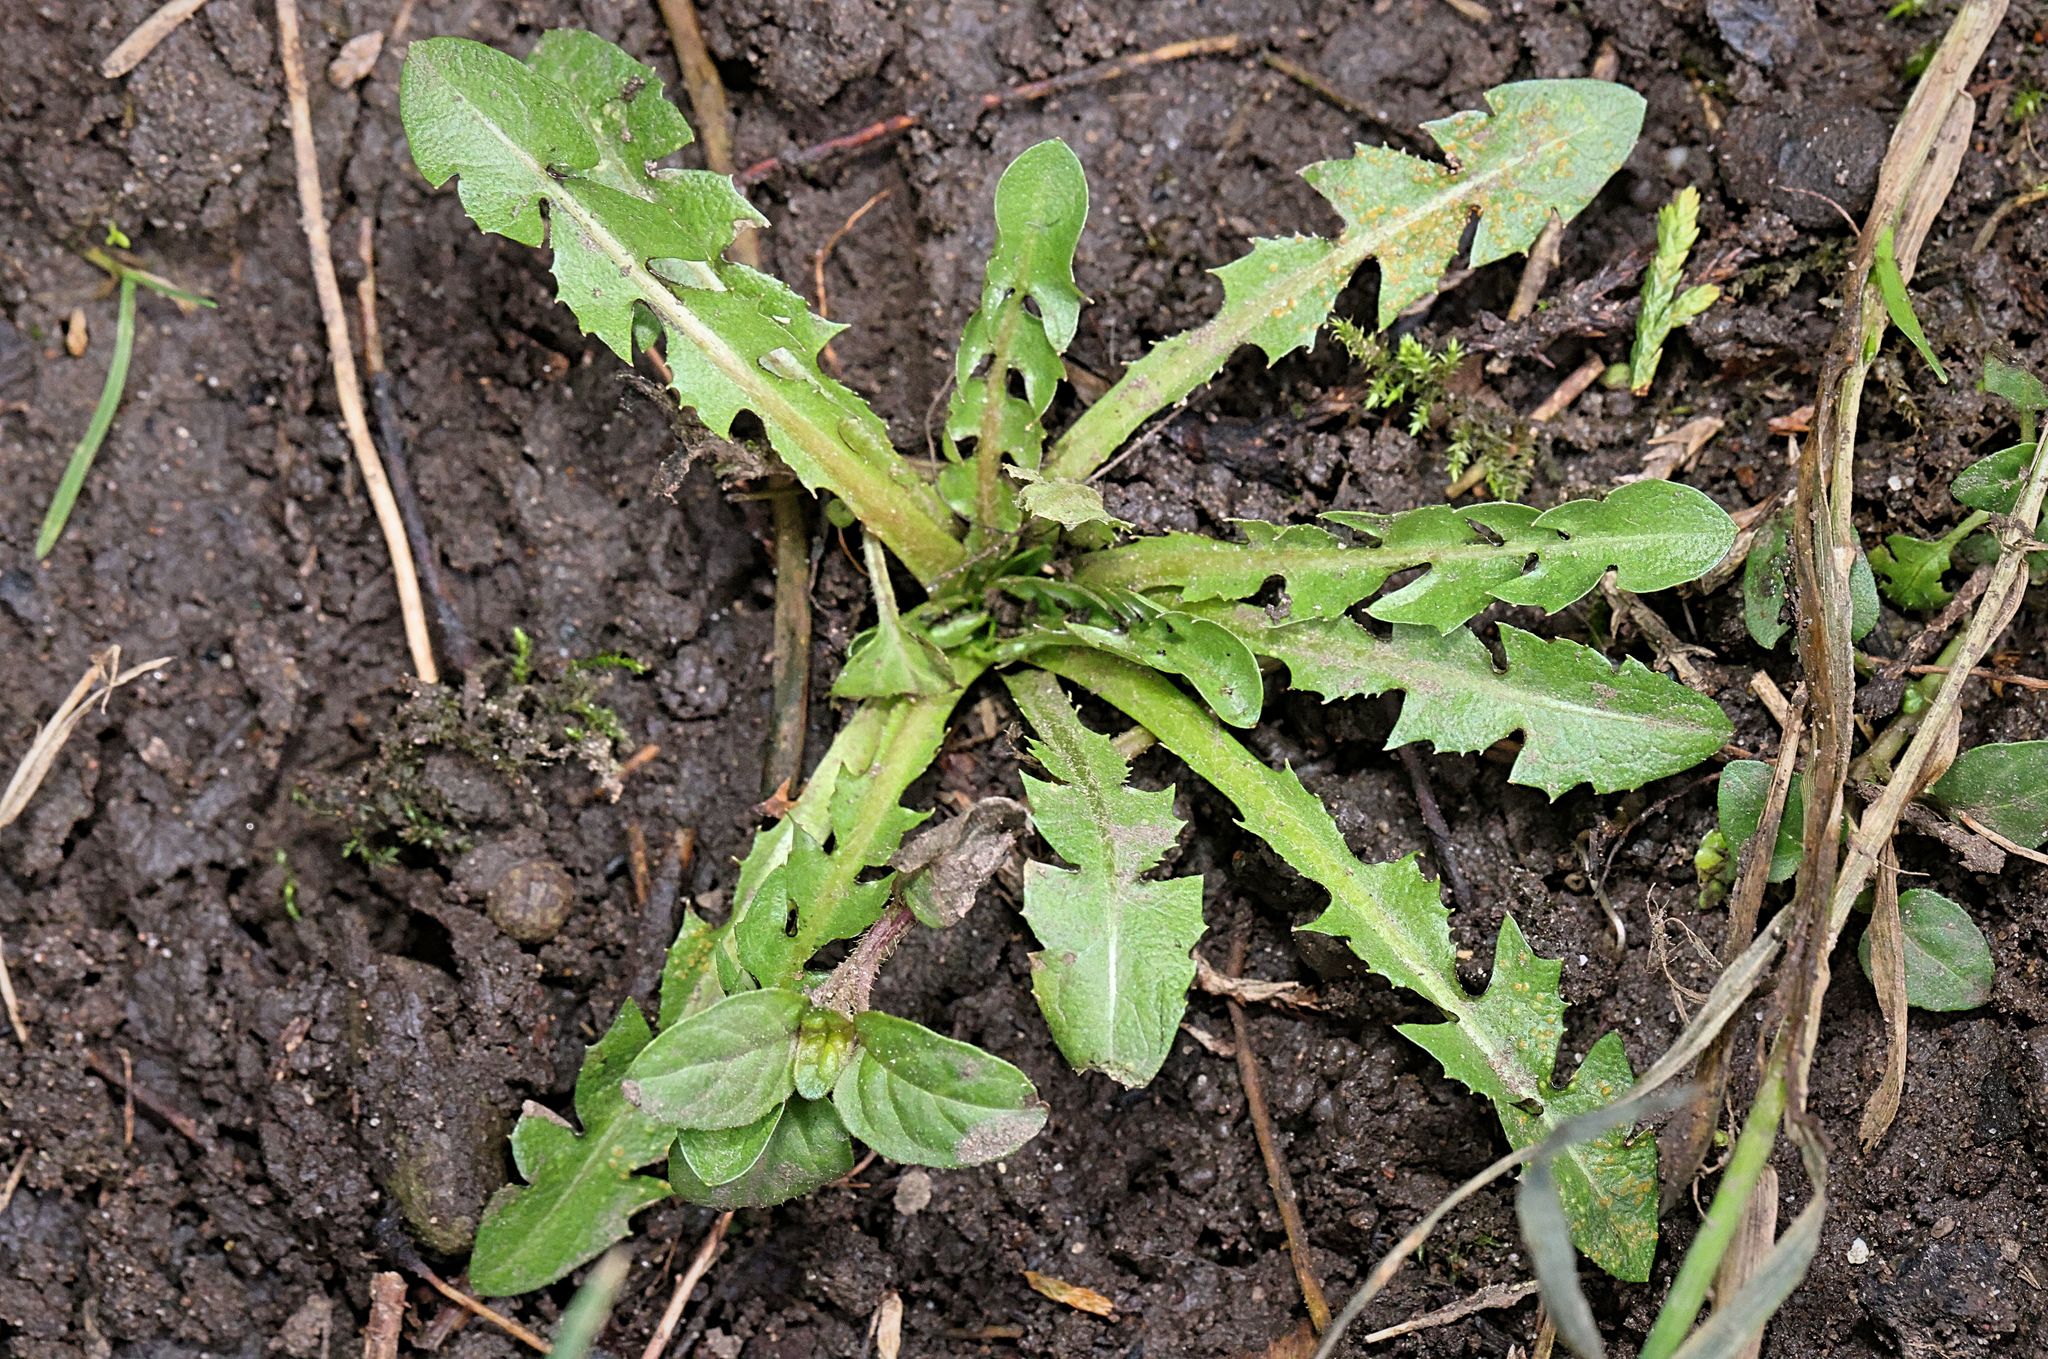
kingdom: Plantae
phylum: Tracheophyta
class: Magnoliopsida
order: Asterales
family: Asteraceae
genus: Taraxacum
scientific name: Taraxacum officinale
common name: Common dandelion
